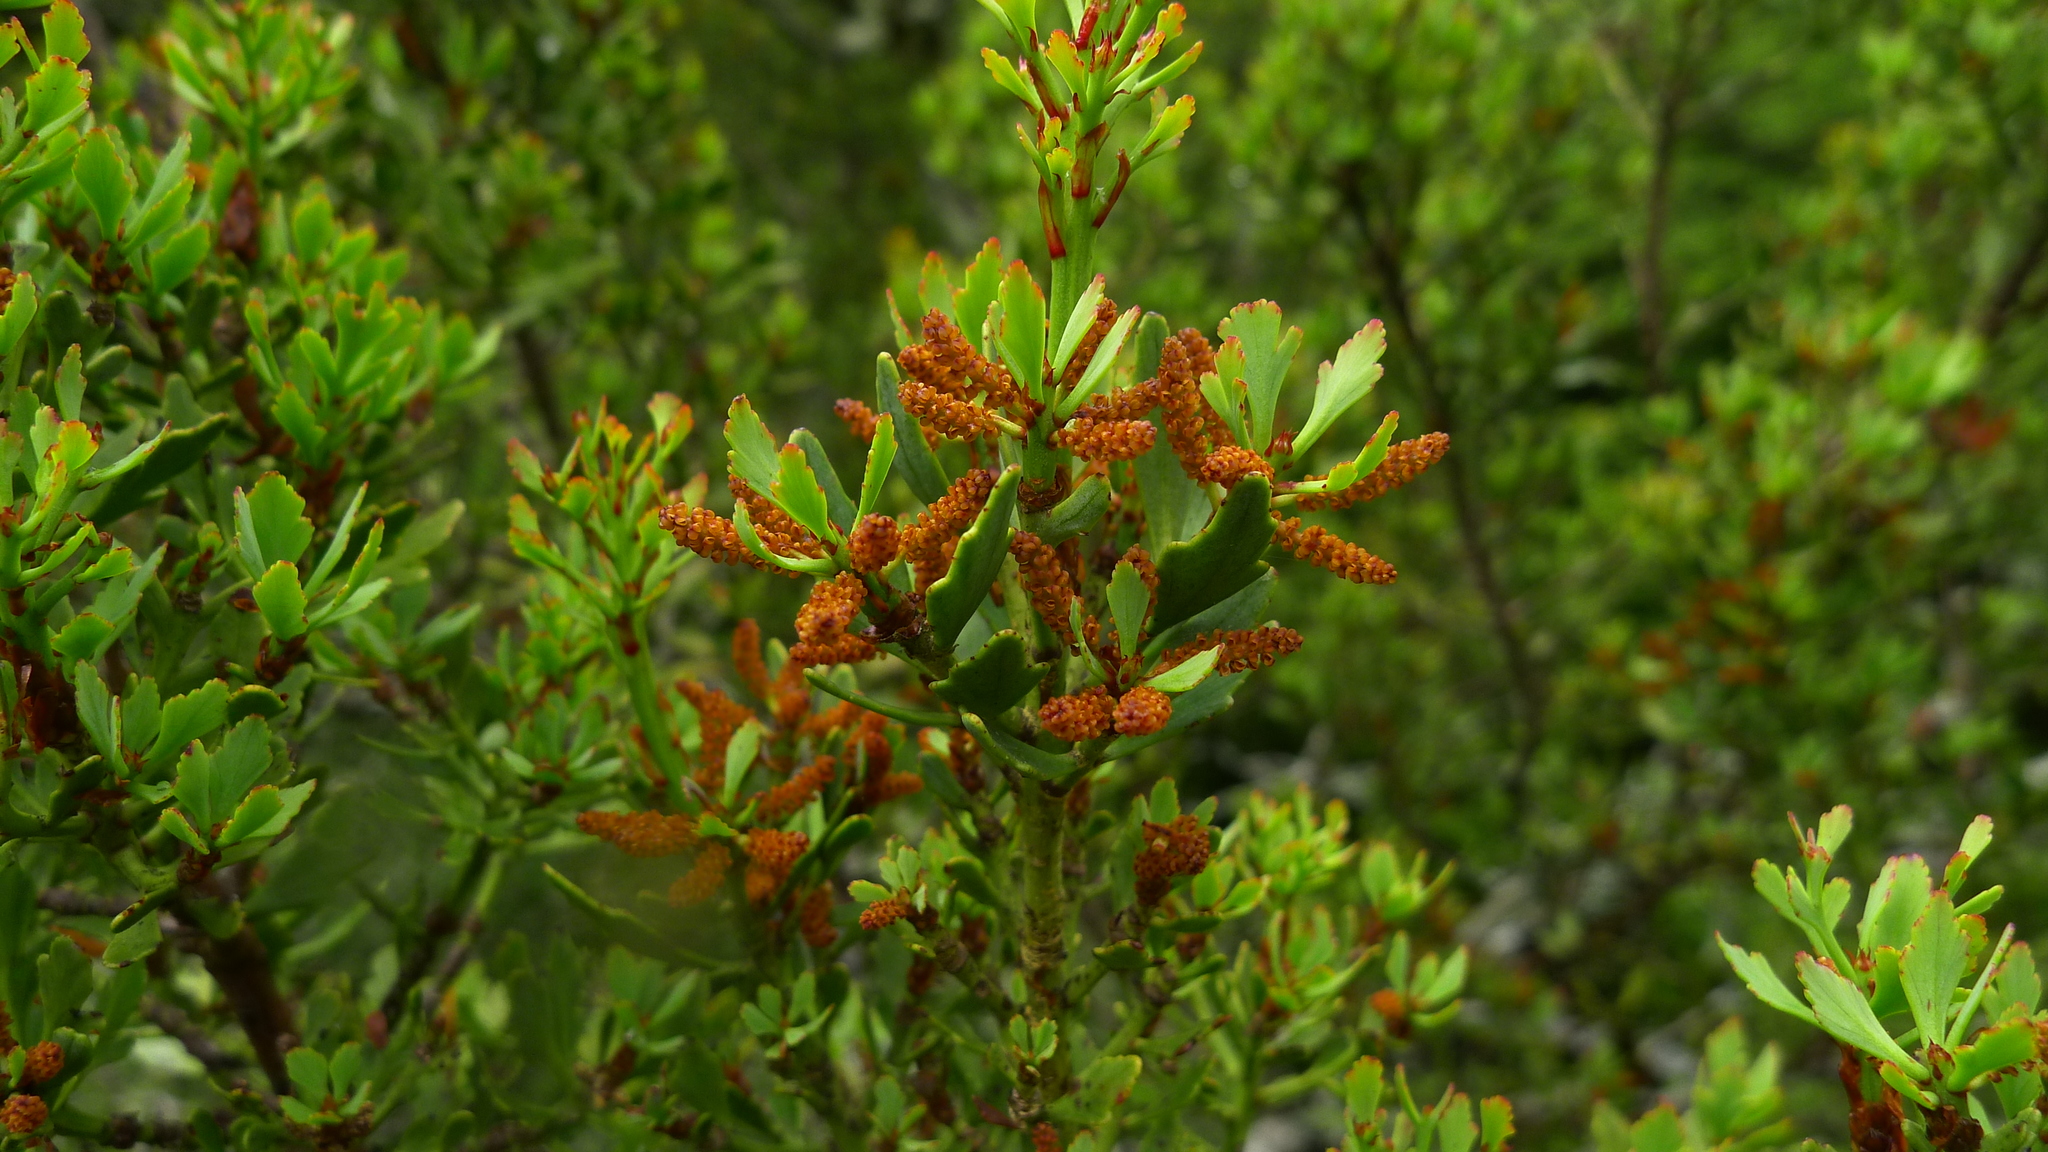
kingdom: Plantae
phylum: Tracheophyta
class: Pinopsida
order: Pinales
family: Phyllocladaceae
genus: Phyllocladus
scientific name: Phyllocladus trichomanoides
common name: Celery pine
